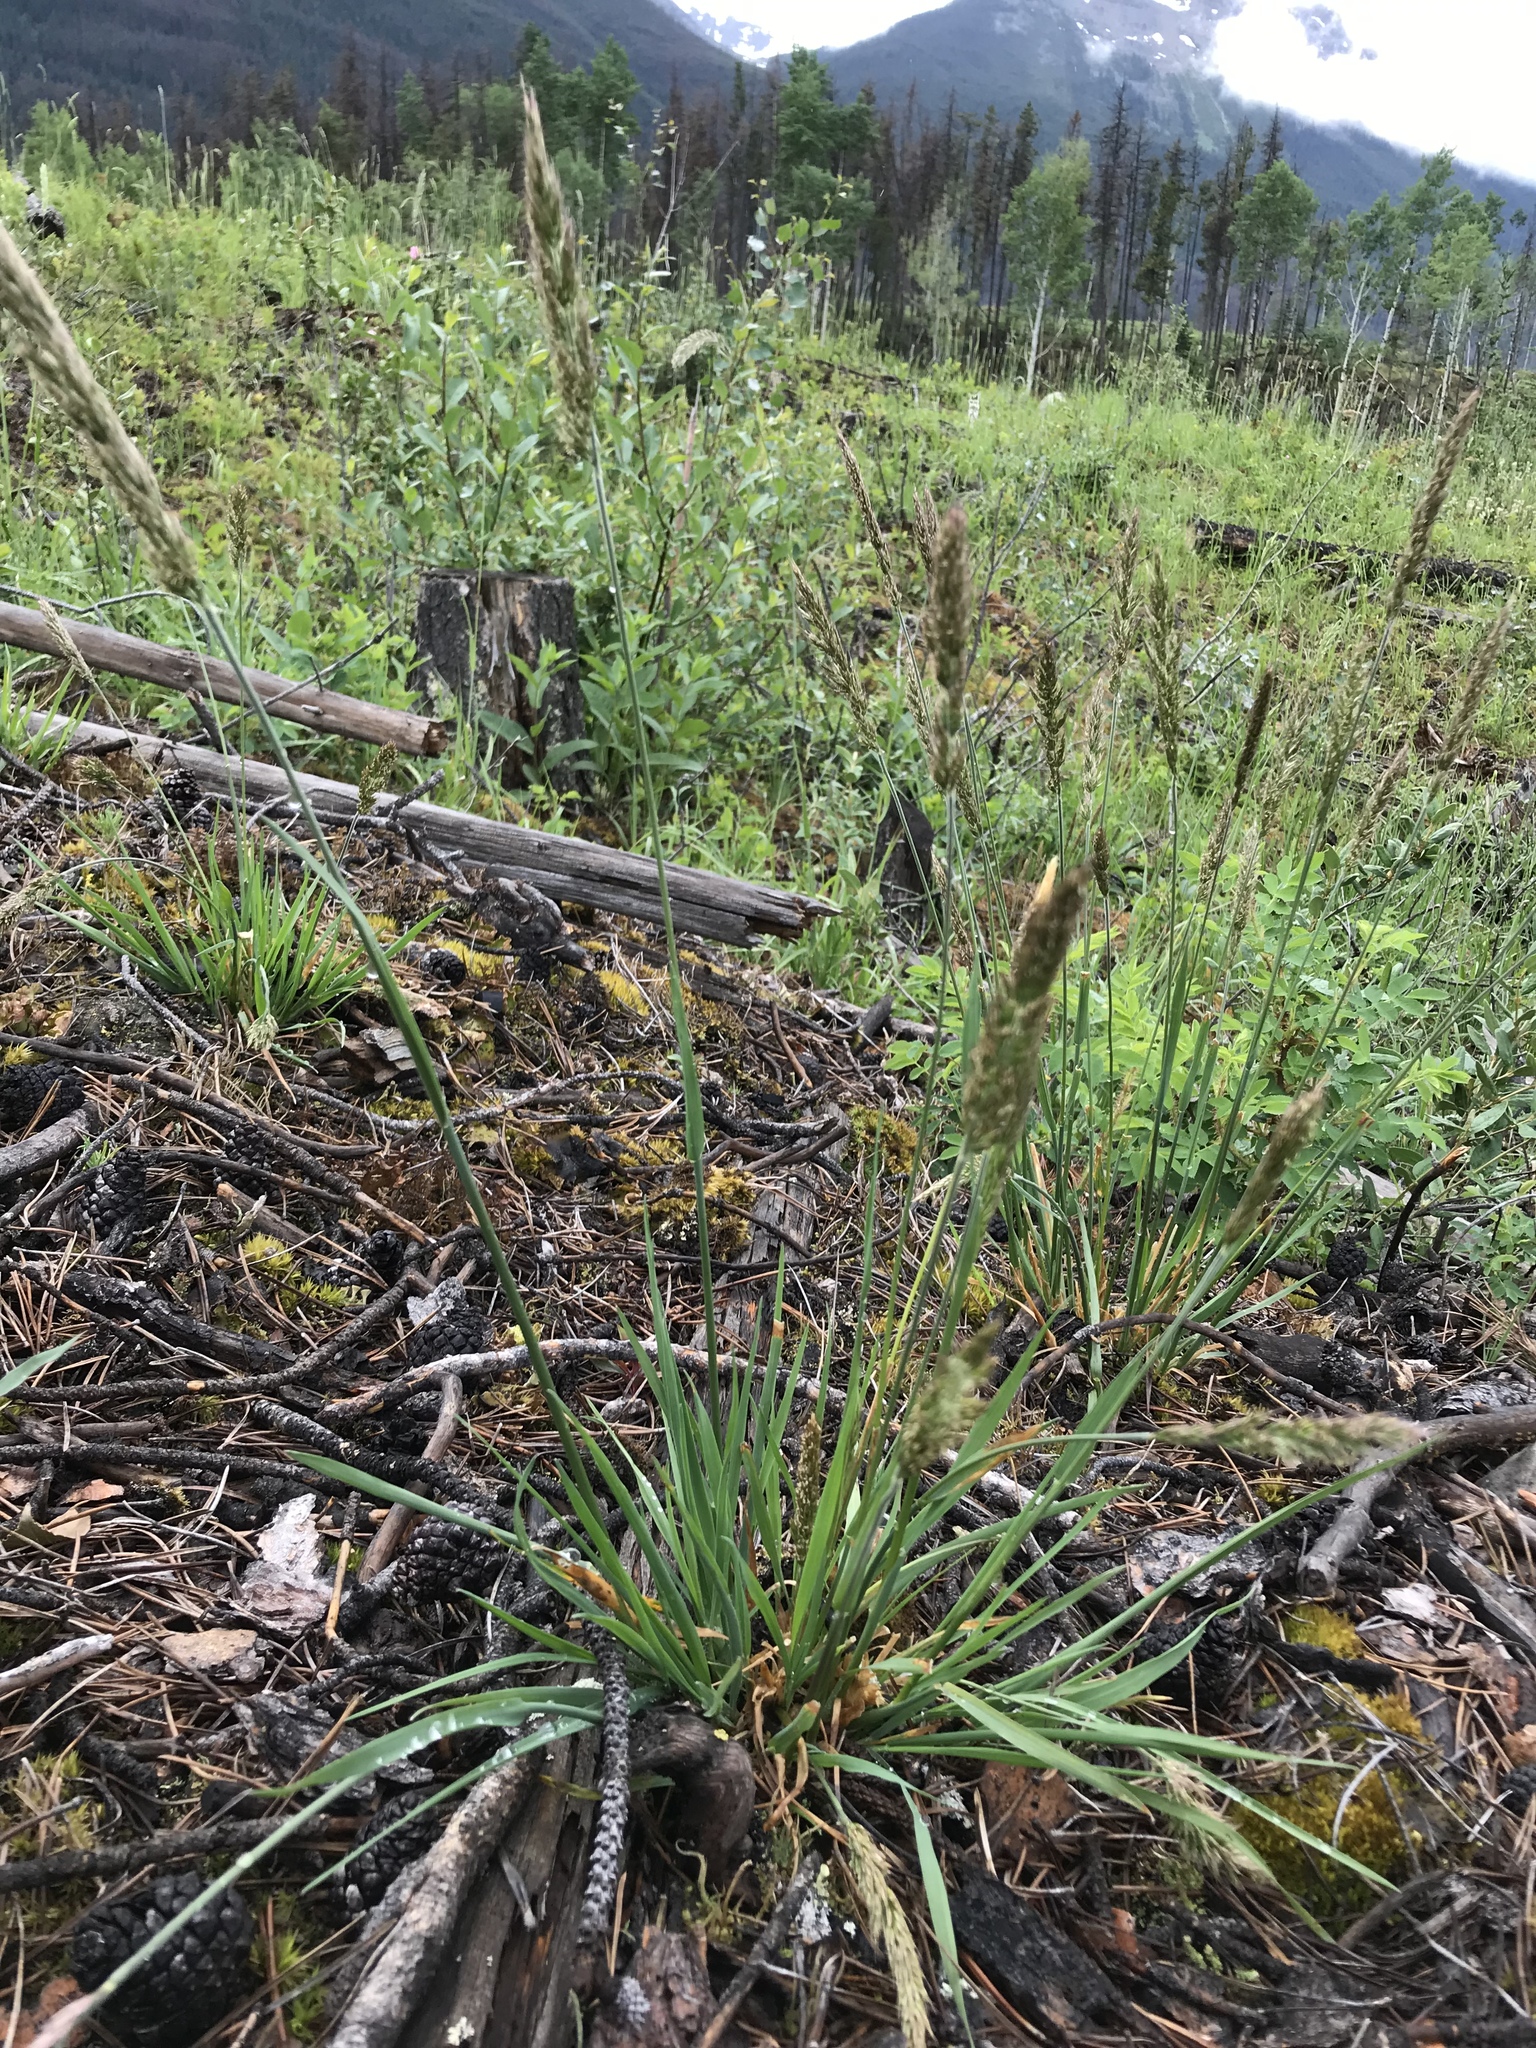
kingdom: Plantae
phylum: Tracheophyta
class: Liliopsida
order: Poales
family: Poaceae
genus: Koeleria
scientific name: Koeleria spicata
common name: Mountain trisetum
